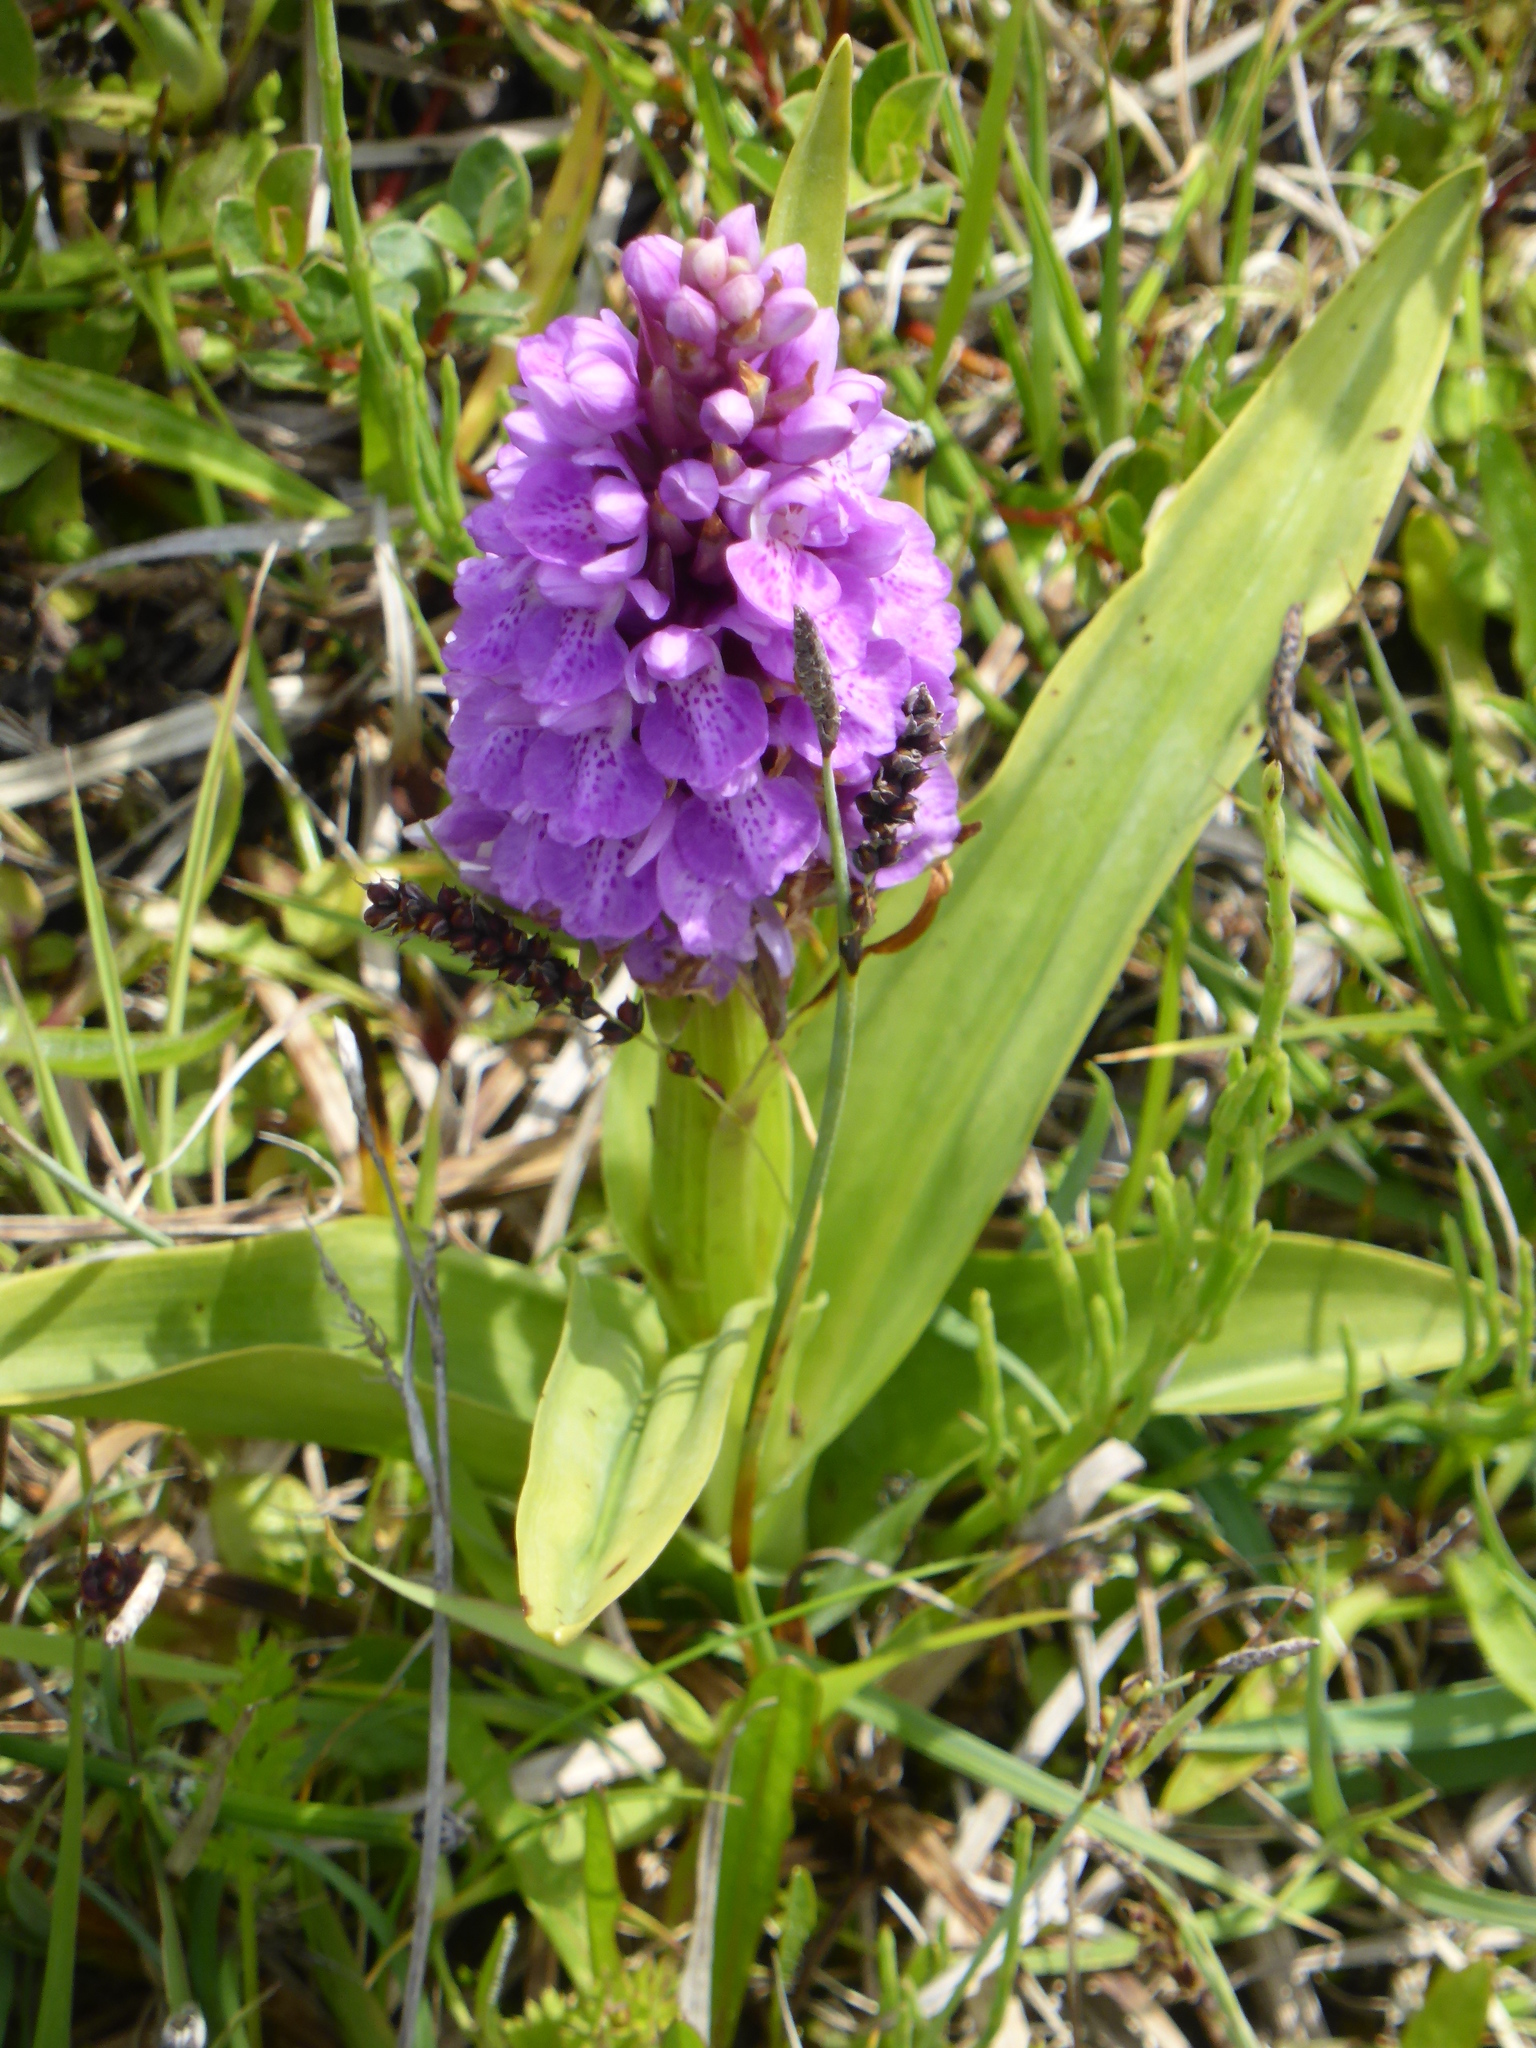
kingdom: Plantae
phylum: Tracheophyta
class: Liliopsida
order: Asparagales
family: Orchidaceae
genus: Dactylorhiza
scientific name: Dactylorhiza majalis
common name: Marsh orchid
